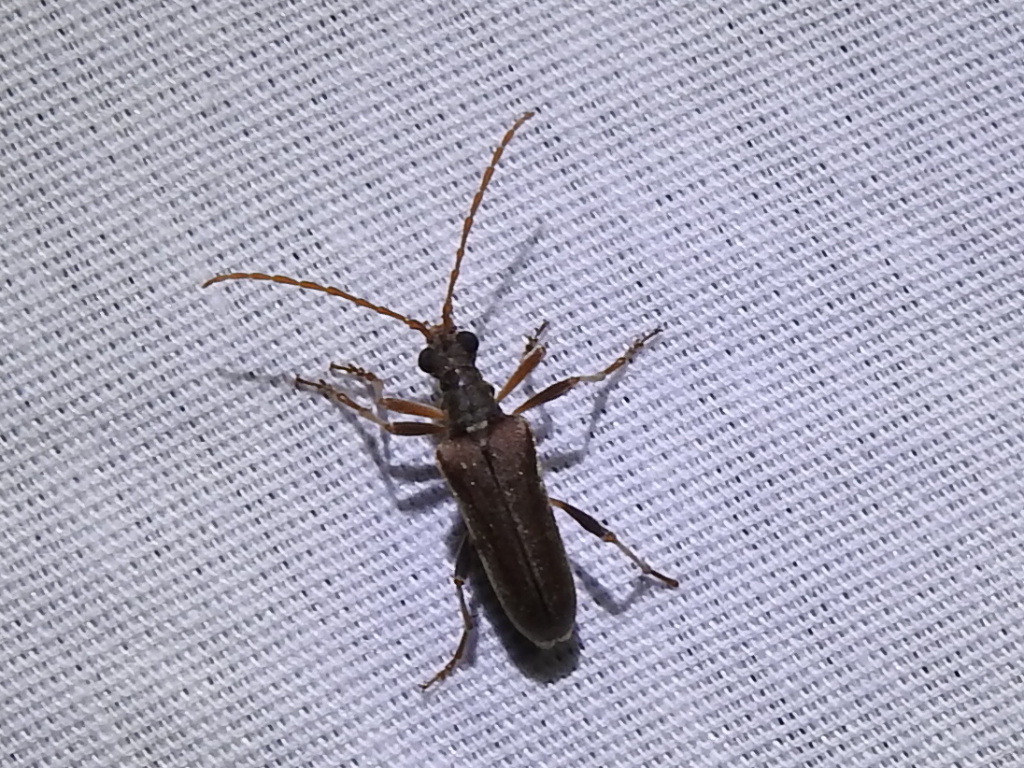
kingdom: Animalia
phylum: Arthropoda
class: Insecta
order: Coleoptera
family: Cerambycidae
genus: Stenocorus
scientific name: Stenocorus cinnamopterus
